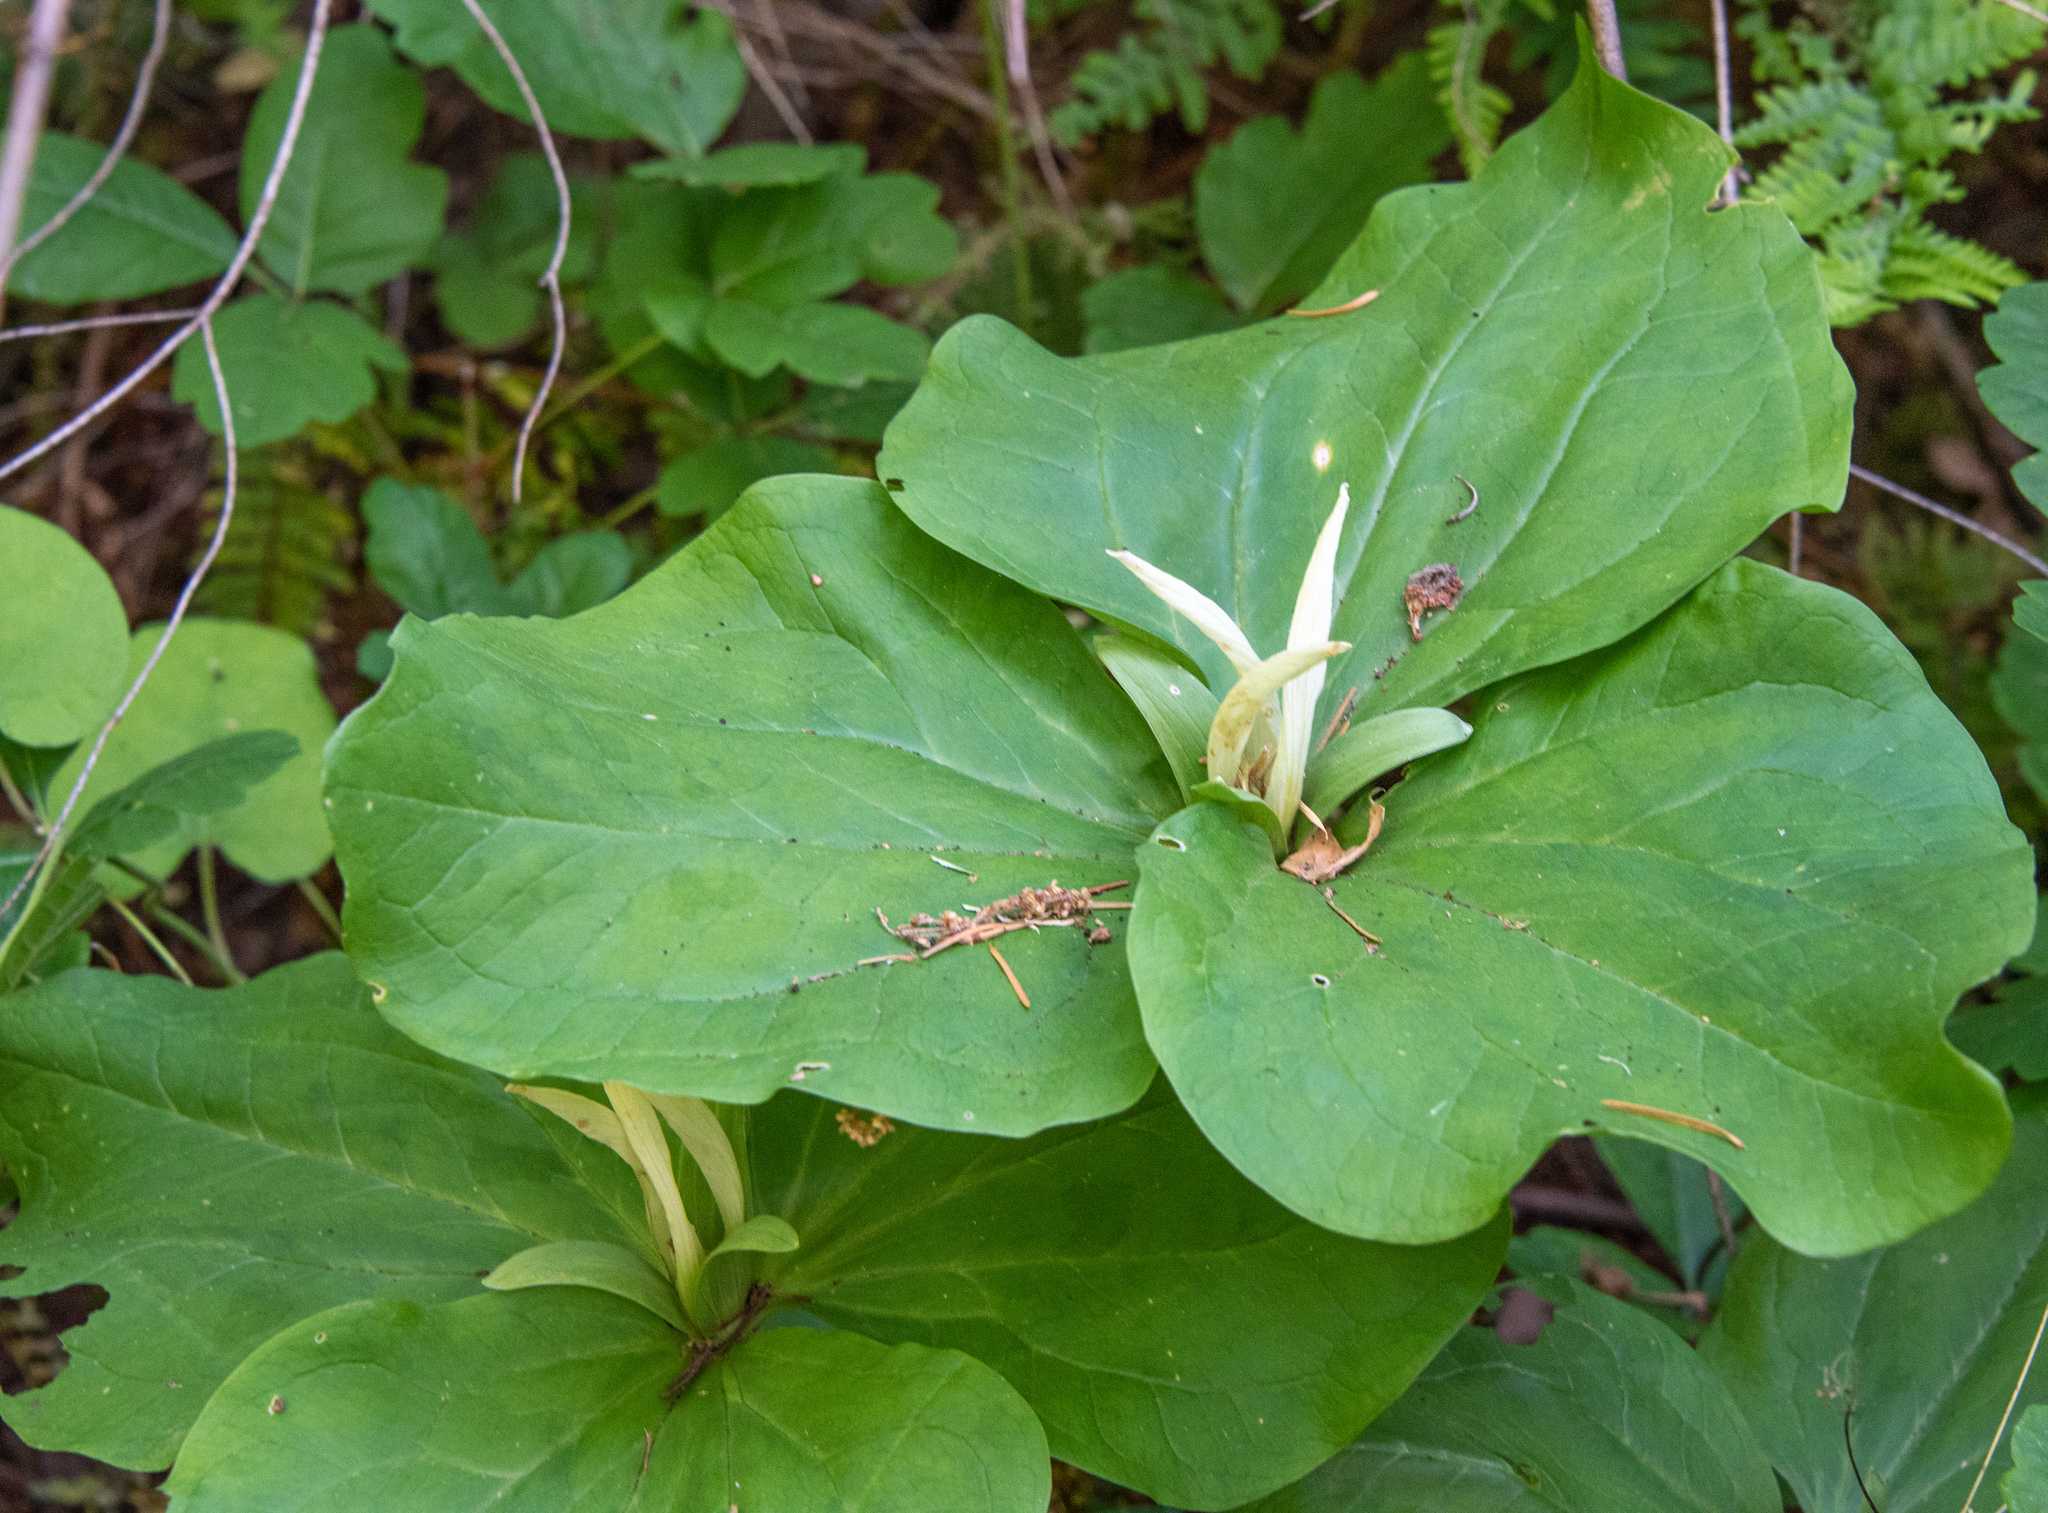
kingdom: Plantae
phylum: Tracheophyta
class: Liliopsida
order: Liliales
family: Melanthiaceae
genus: Trillium
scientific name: Trillium albidum
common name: Freeman's trillium
